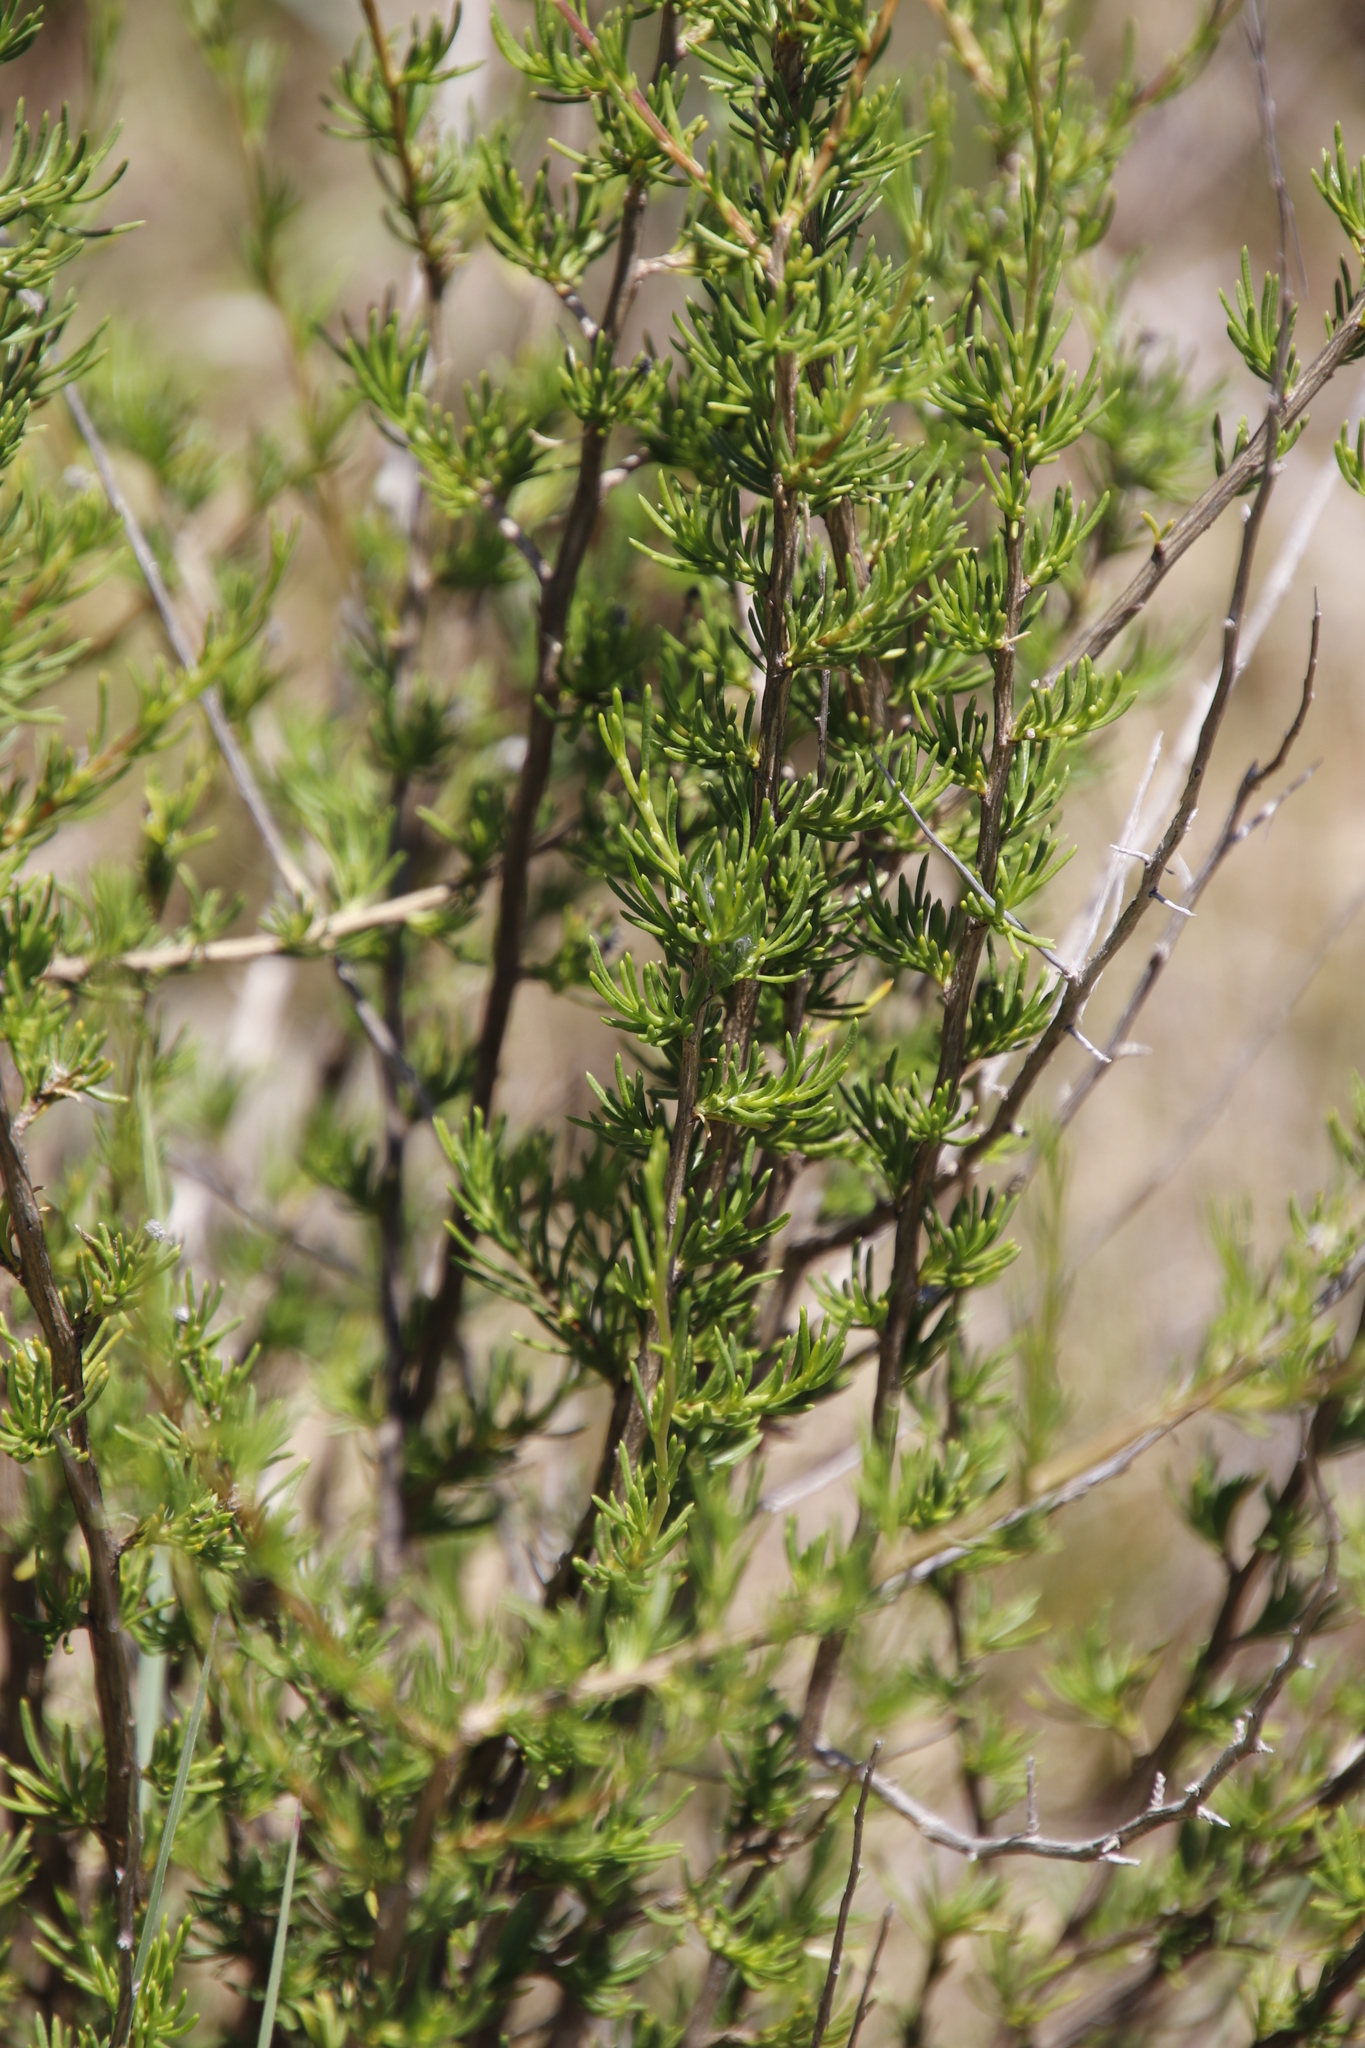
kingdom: Plantae
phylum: Tracheophyta
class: Magnoliopsida
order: Asterales
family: Asteraceae
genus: Felicia
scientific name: Felicia filifolia
